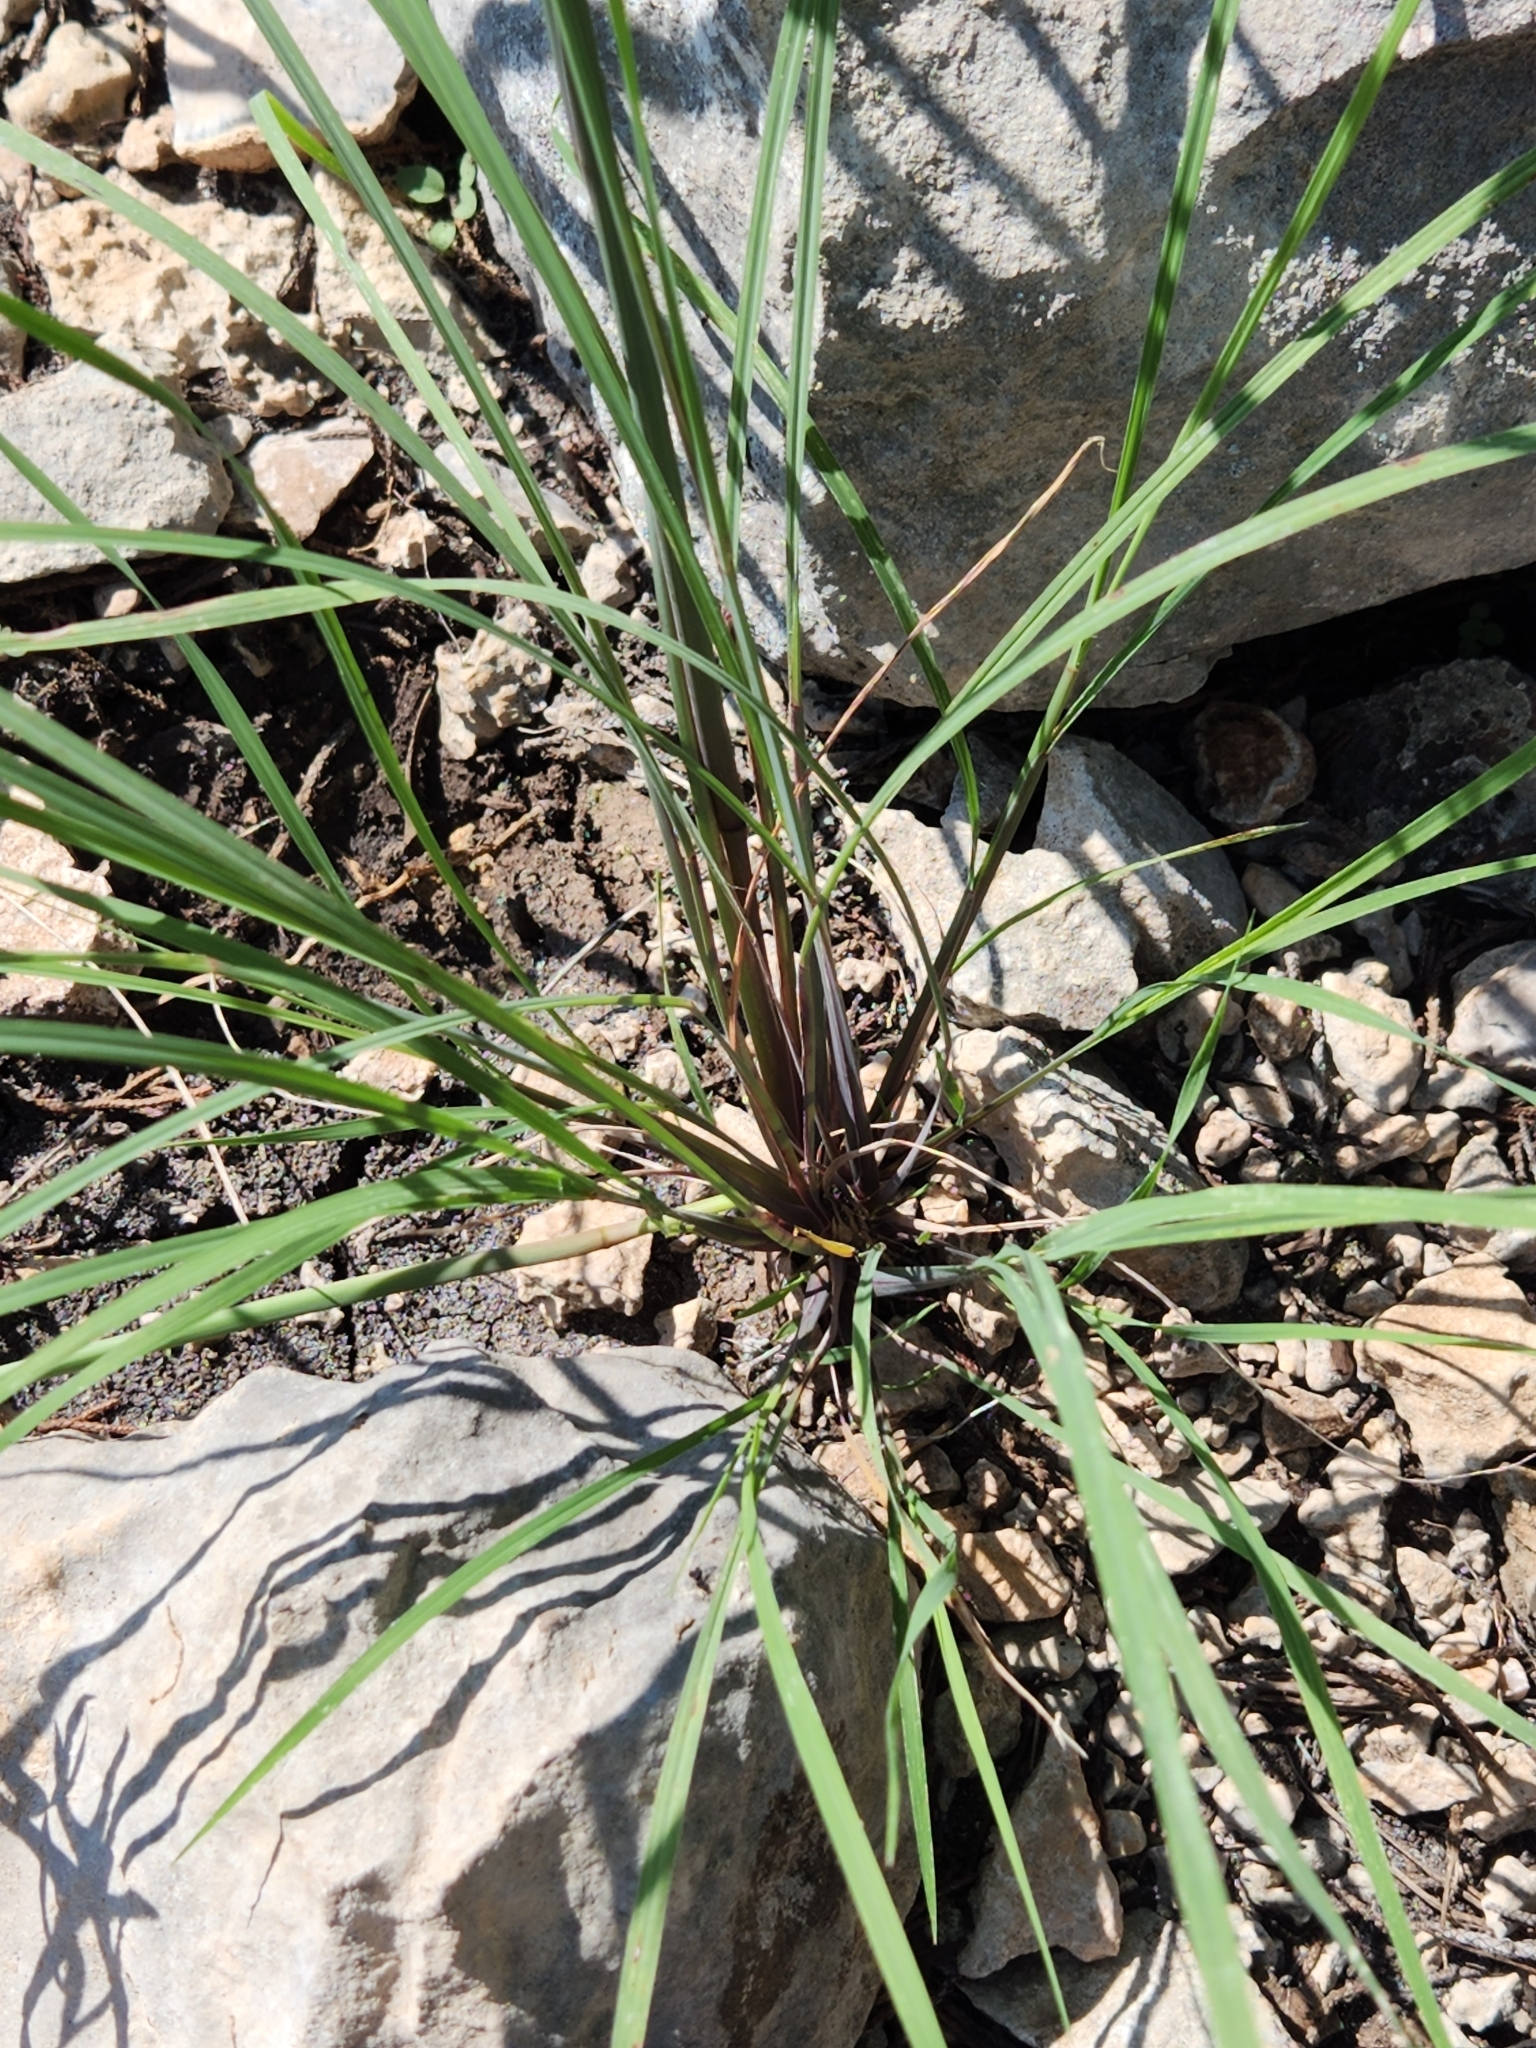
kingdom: Plantae
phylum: Tracheophyta
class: Liliopsida
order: Poales
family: Poaceae
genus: Disakisperma
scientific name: Disakisperma dubium
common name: Green sprangletop
